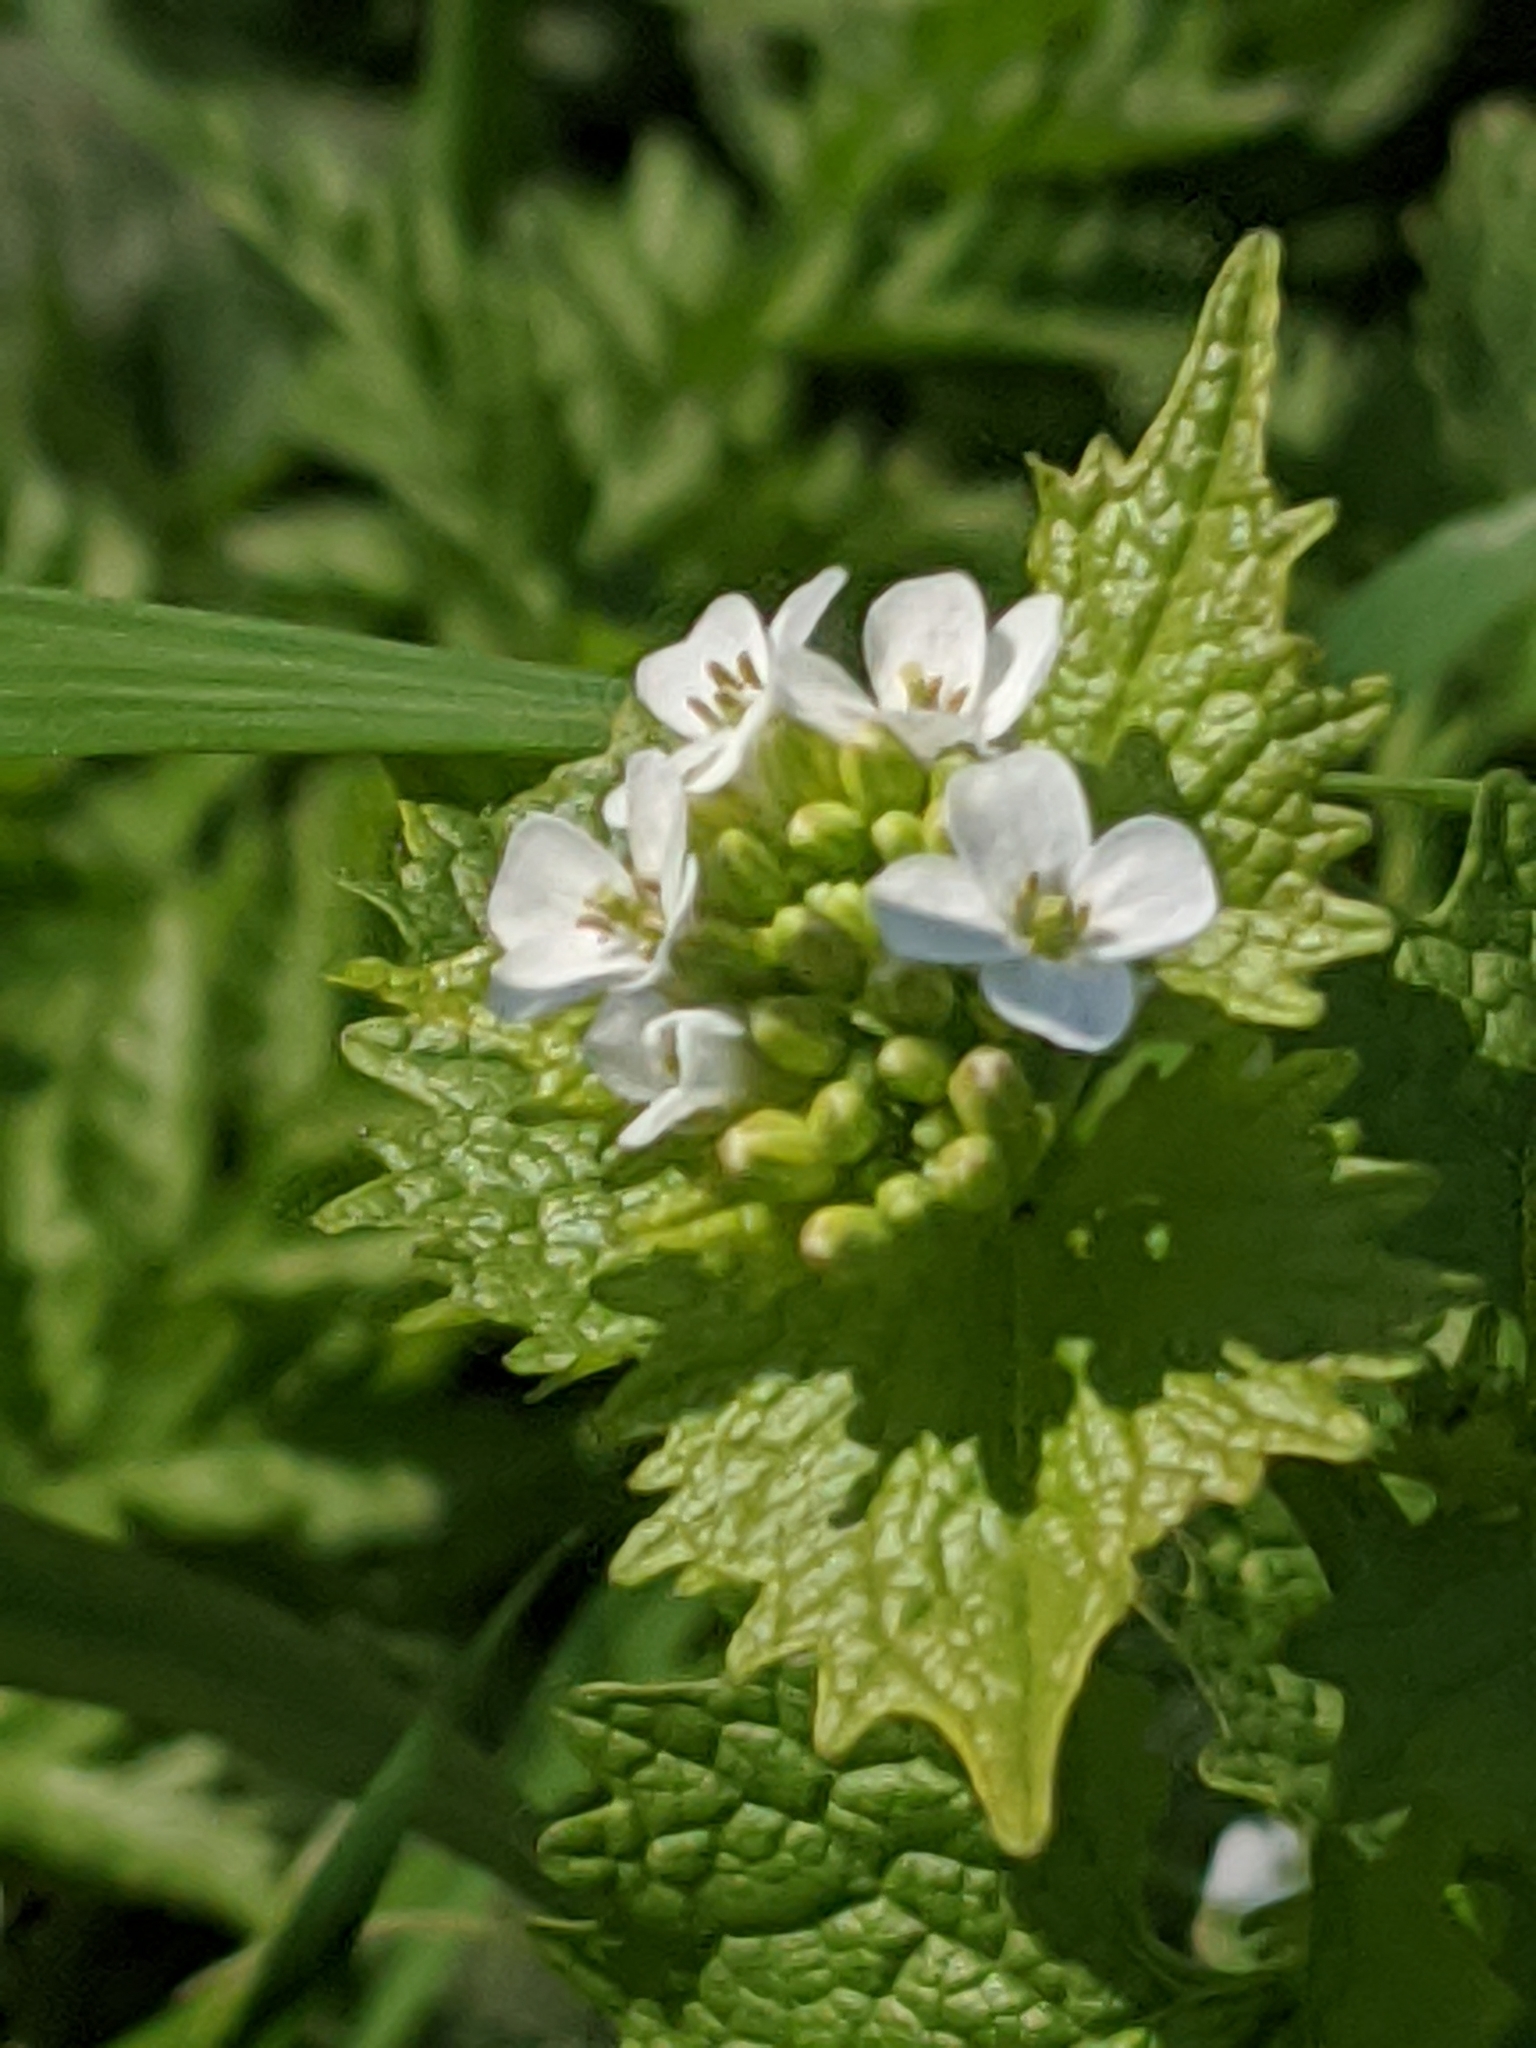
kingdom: Plantae
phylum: Tracheophyta
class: Magnoliopsida
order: Brassicales
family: Brassicaceae
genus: Alliaria
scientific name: Alliaria petiolata
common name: Garlic mustard
